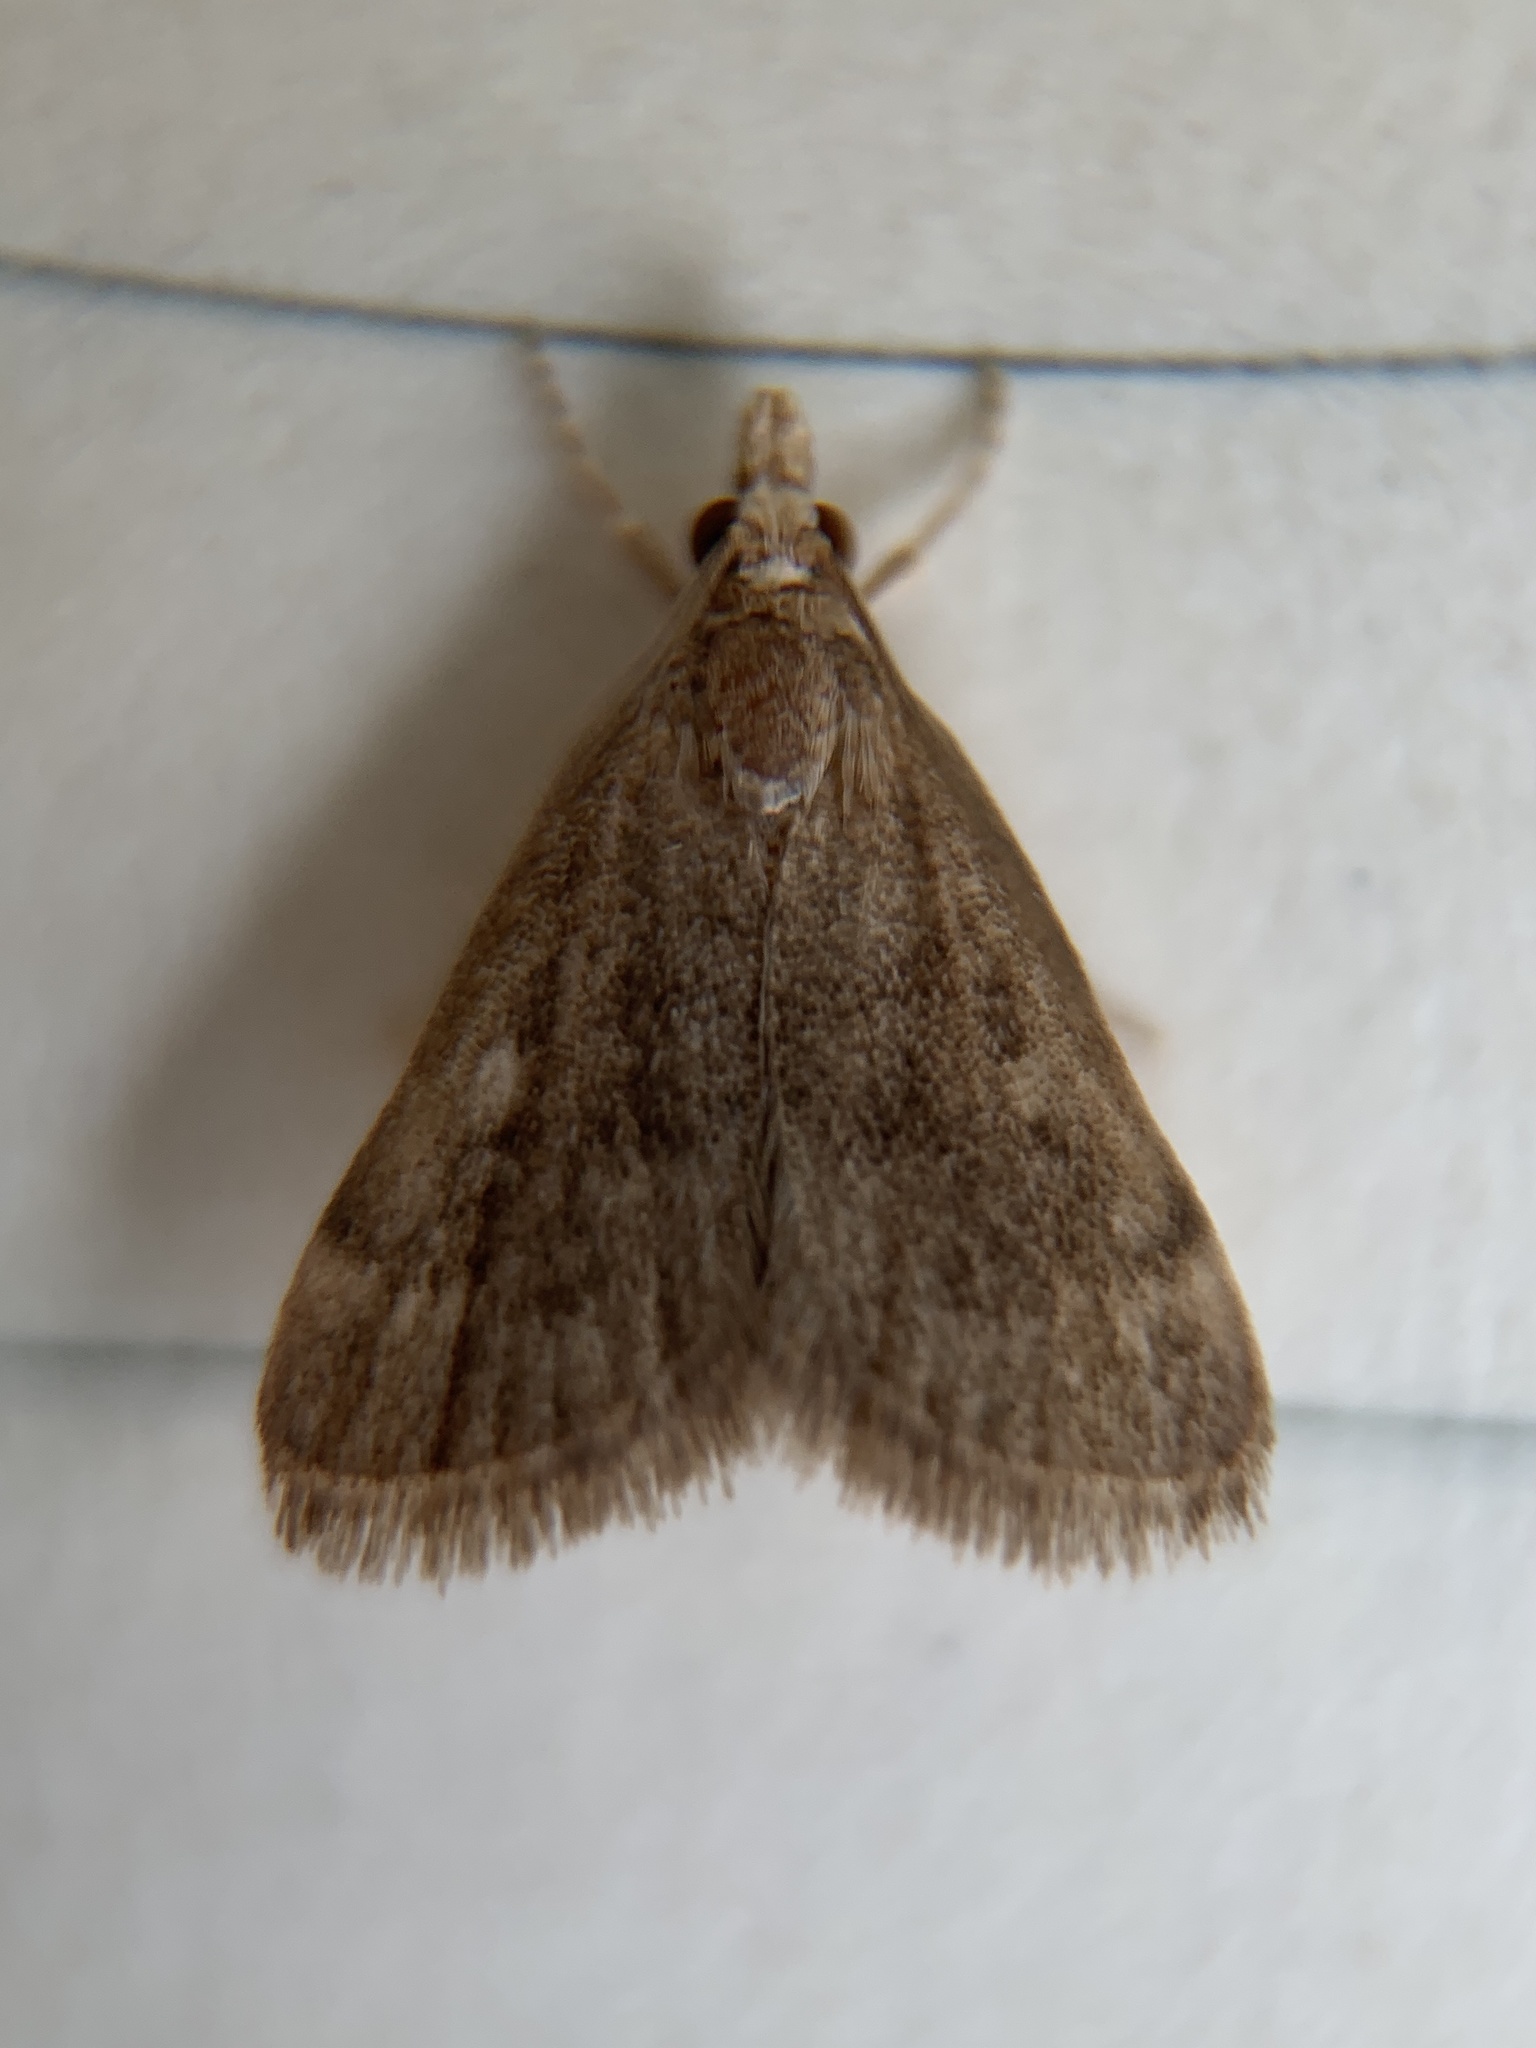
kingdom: Animalia
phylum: Arthropoda
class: Insecta
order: Lepidoptera
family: Crambidae
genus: Pyrausta
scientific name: Pyrausta merrickalis
